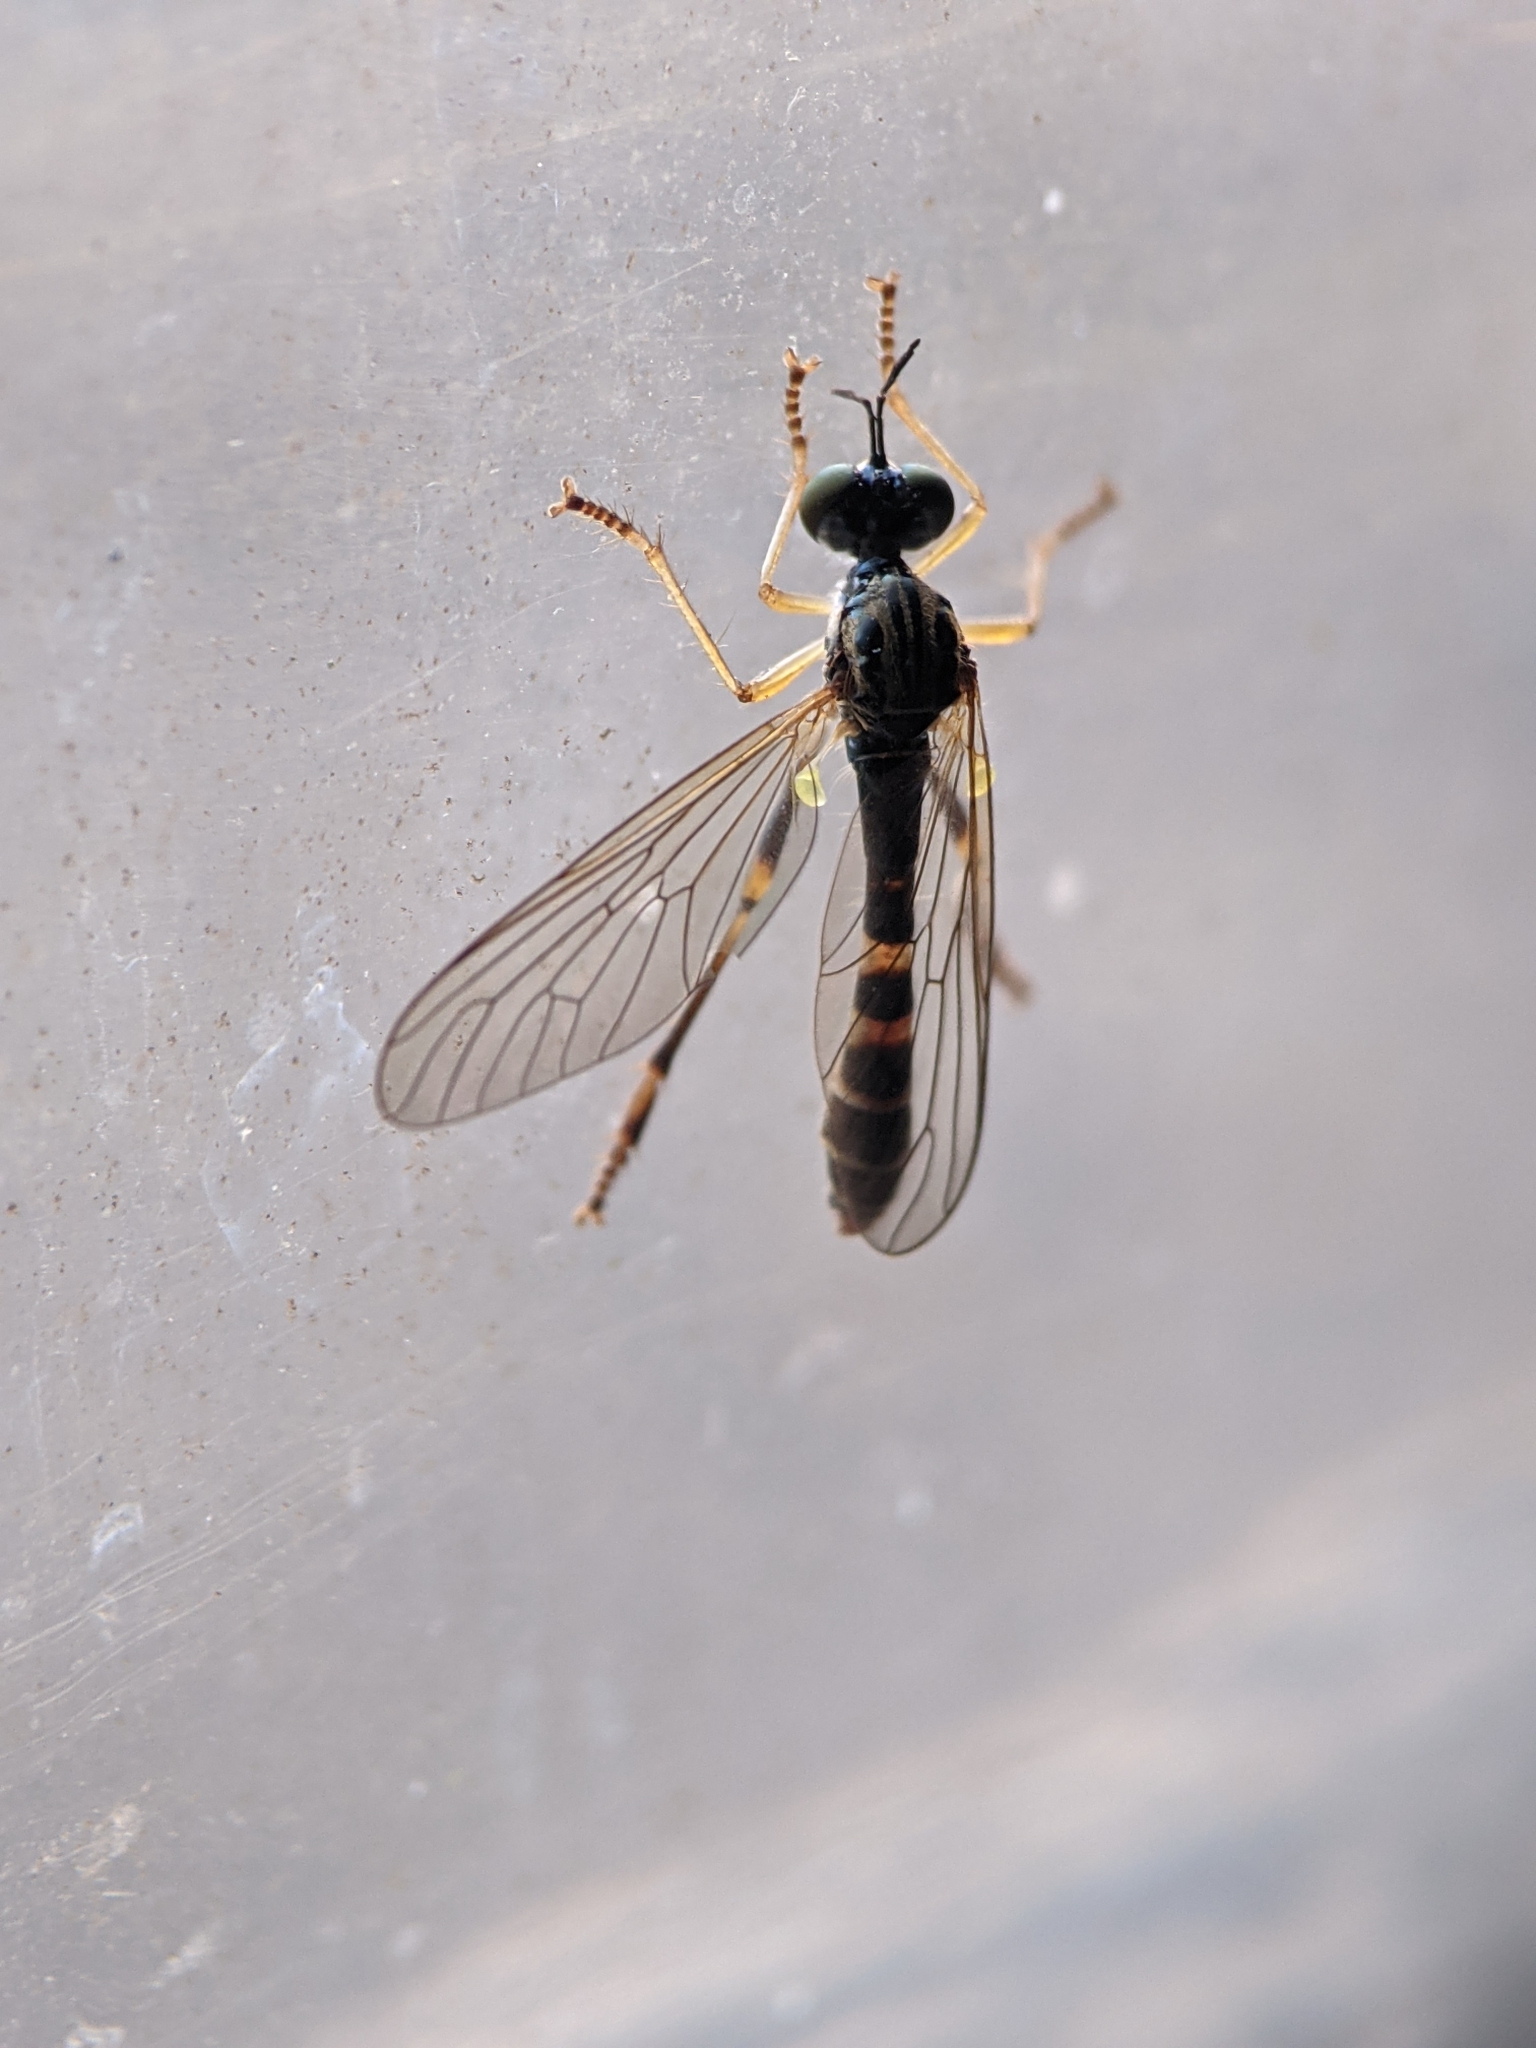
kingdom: Animalia
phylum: Arthropoda
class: Insecta
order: Diptera
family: Asilidae
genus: Dioctria
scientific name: Dioctria linearis
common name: Small yellow-legged robberfly
